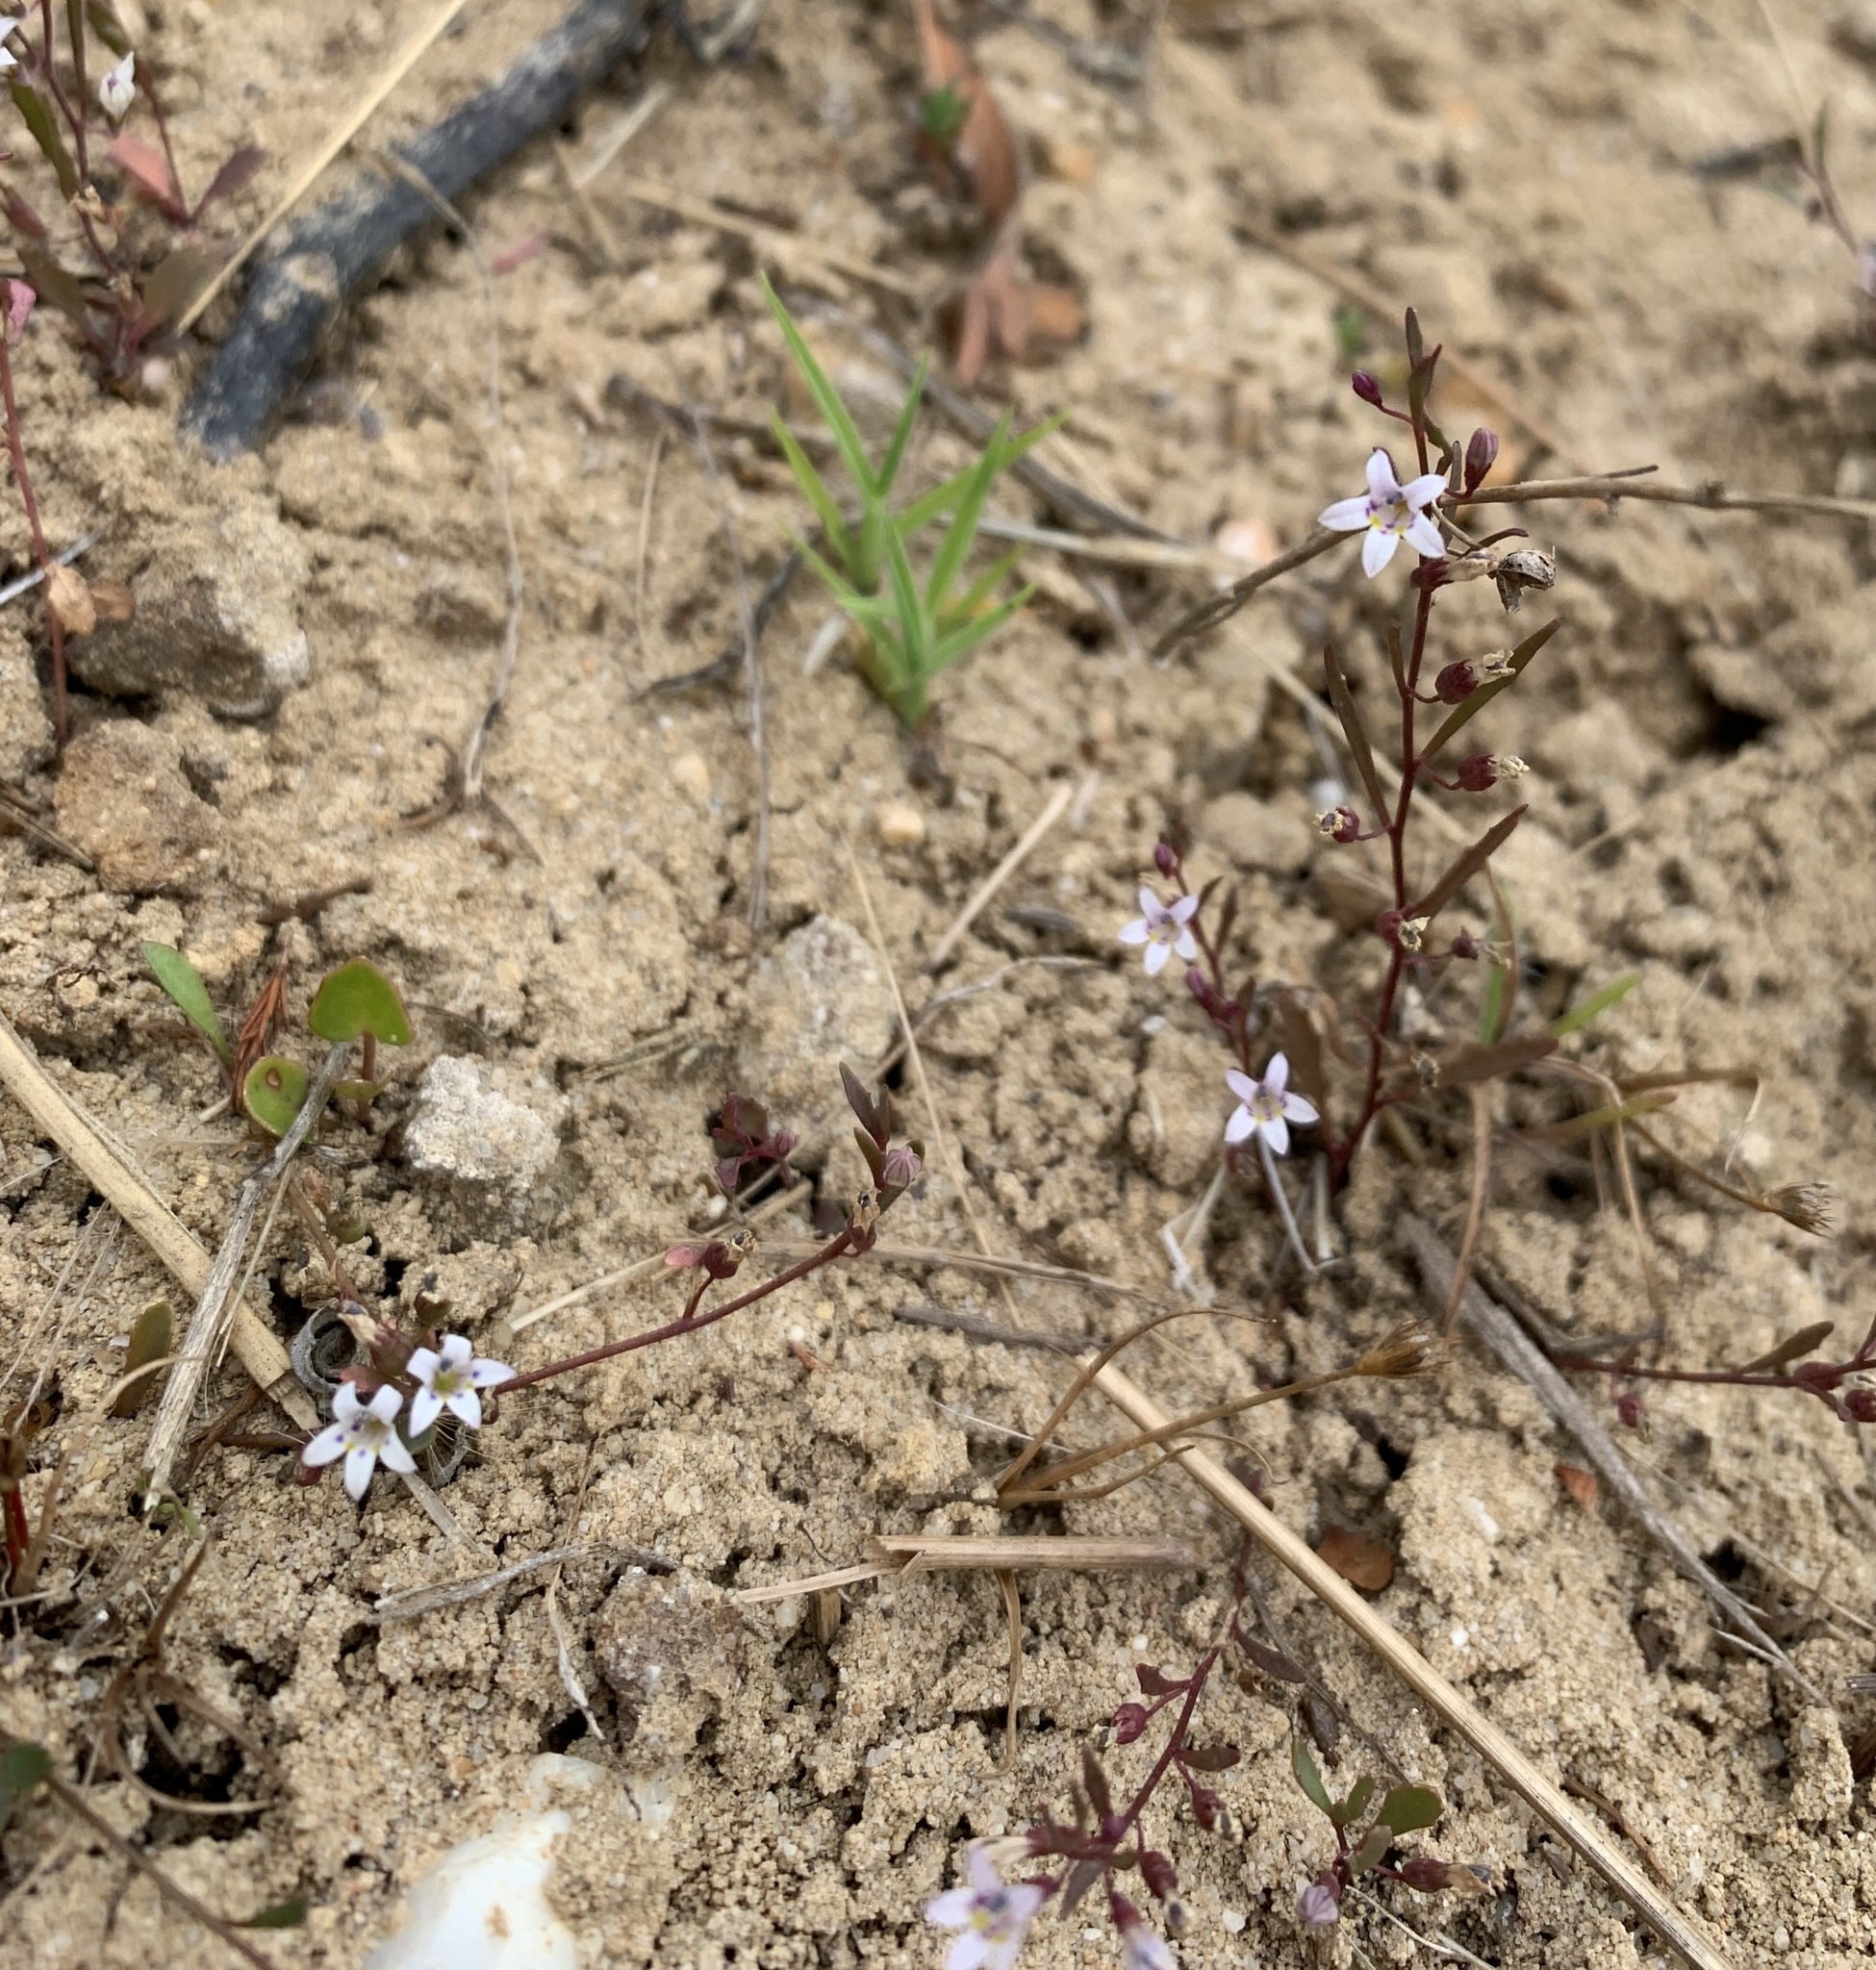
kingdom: Plantae
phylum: Tracheophyta
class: Magnoliopsida
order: Asterales
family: Campanulaceae
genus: Wimmerella
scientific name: Wimmerella secunda
